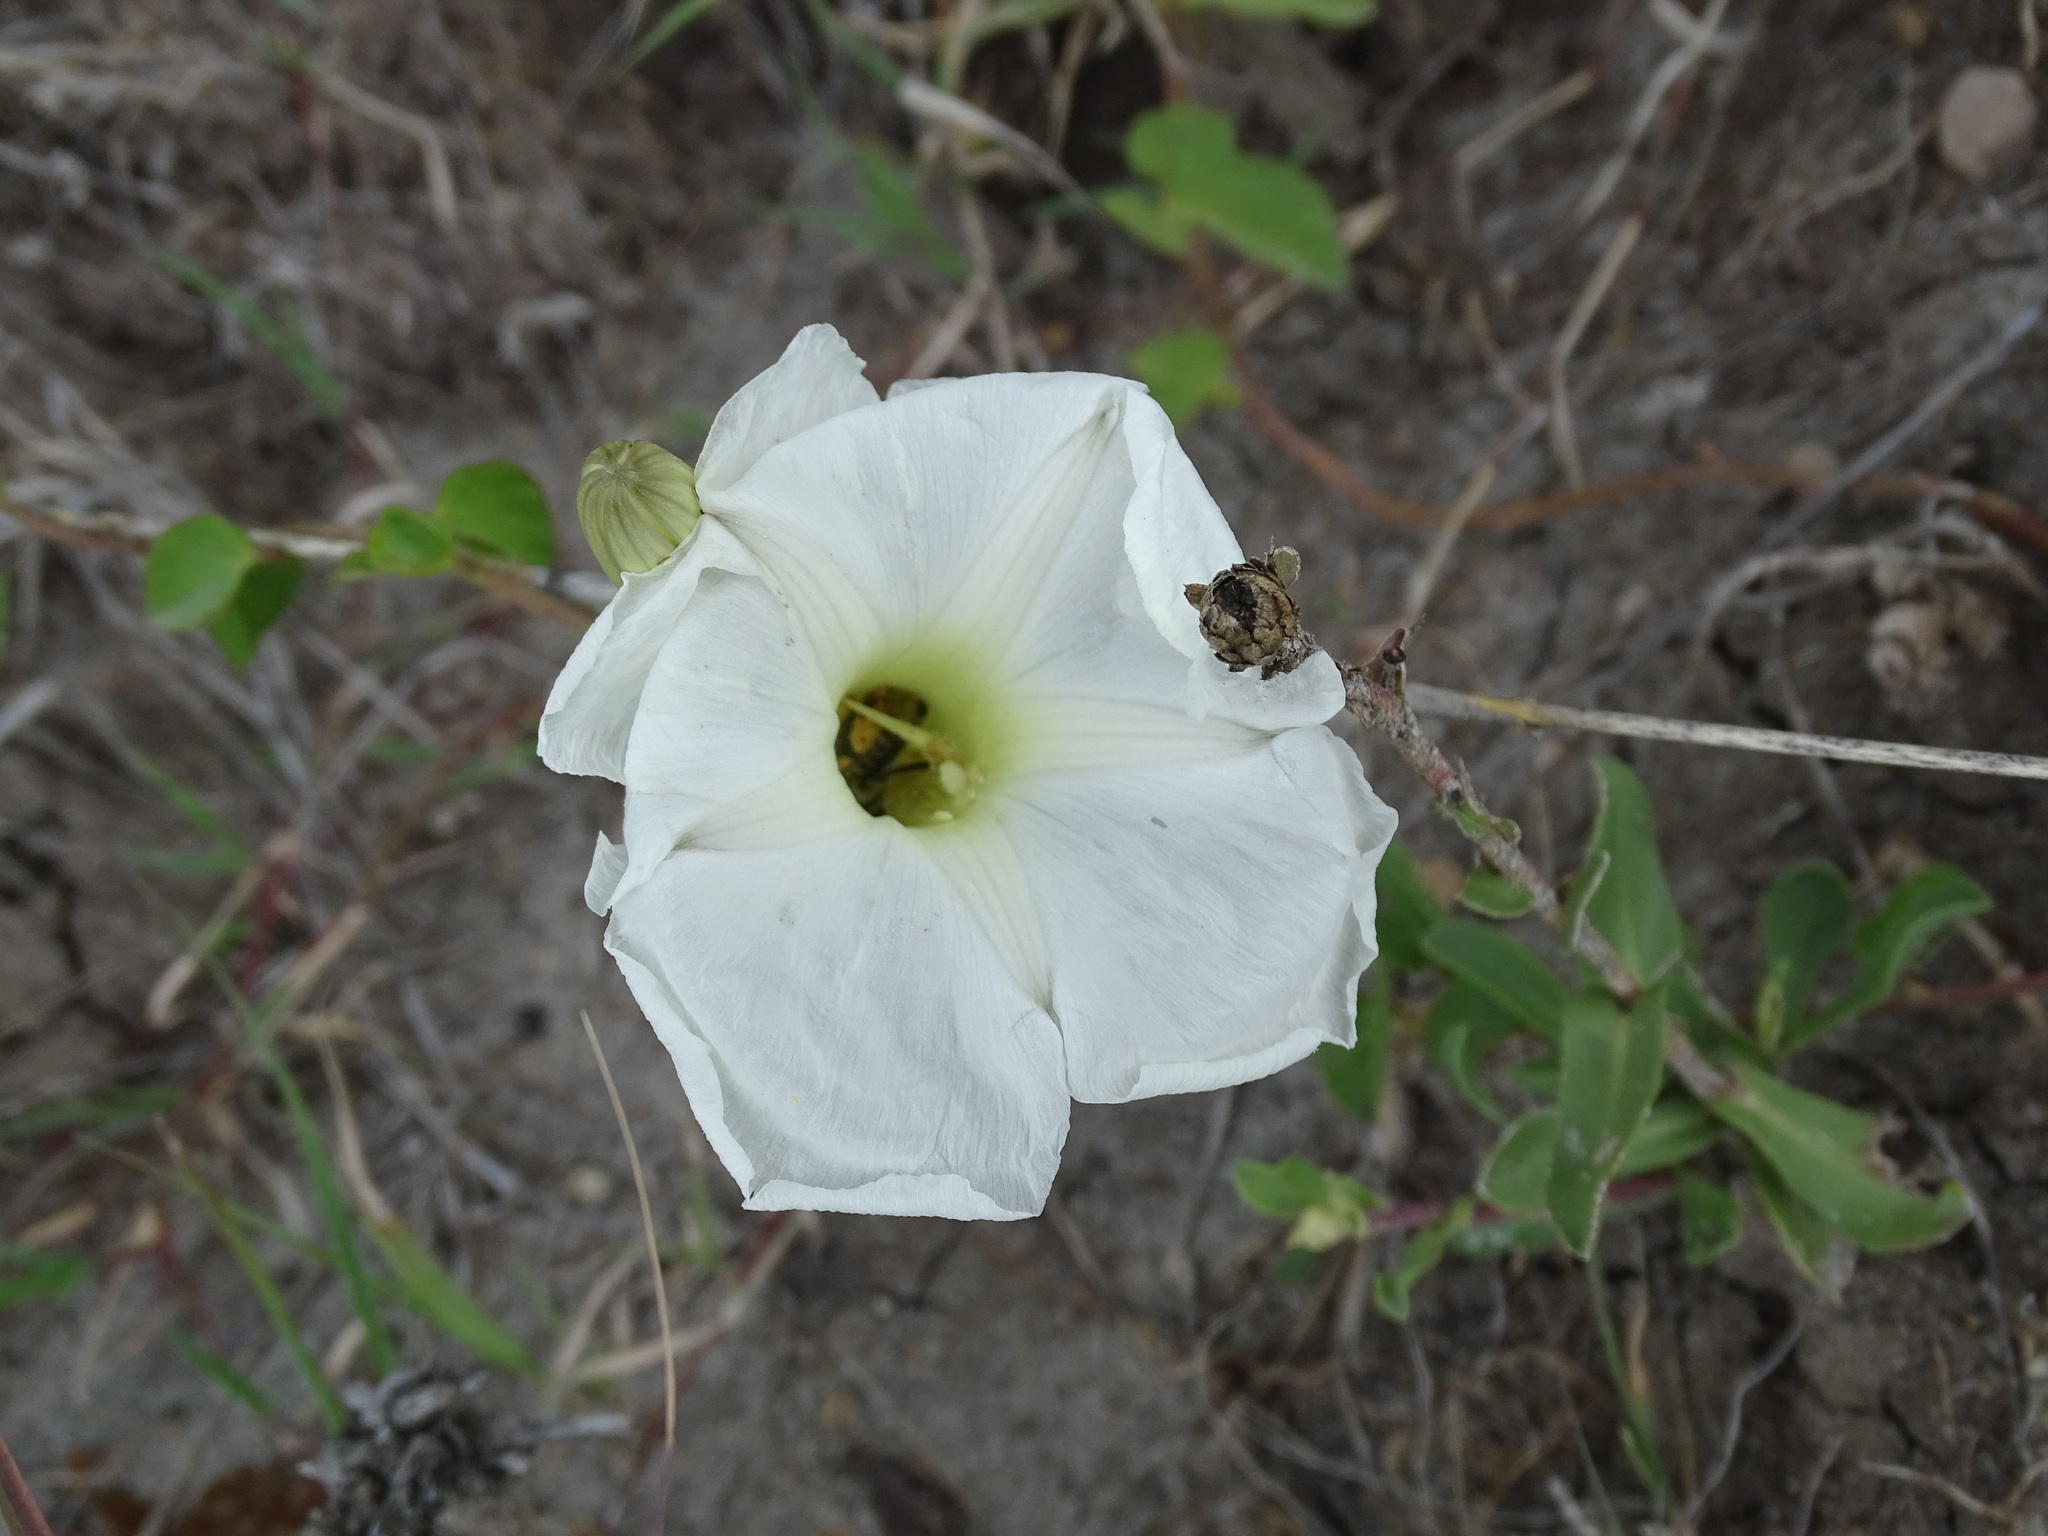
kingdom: Plantae
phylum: Tracheophyta
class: Magnoliopsida
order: Solanales
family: Convolvulaceae
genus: Ipomoea
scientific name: Ipomoea proxima
